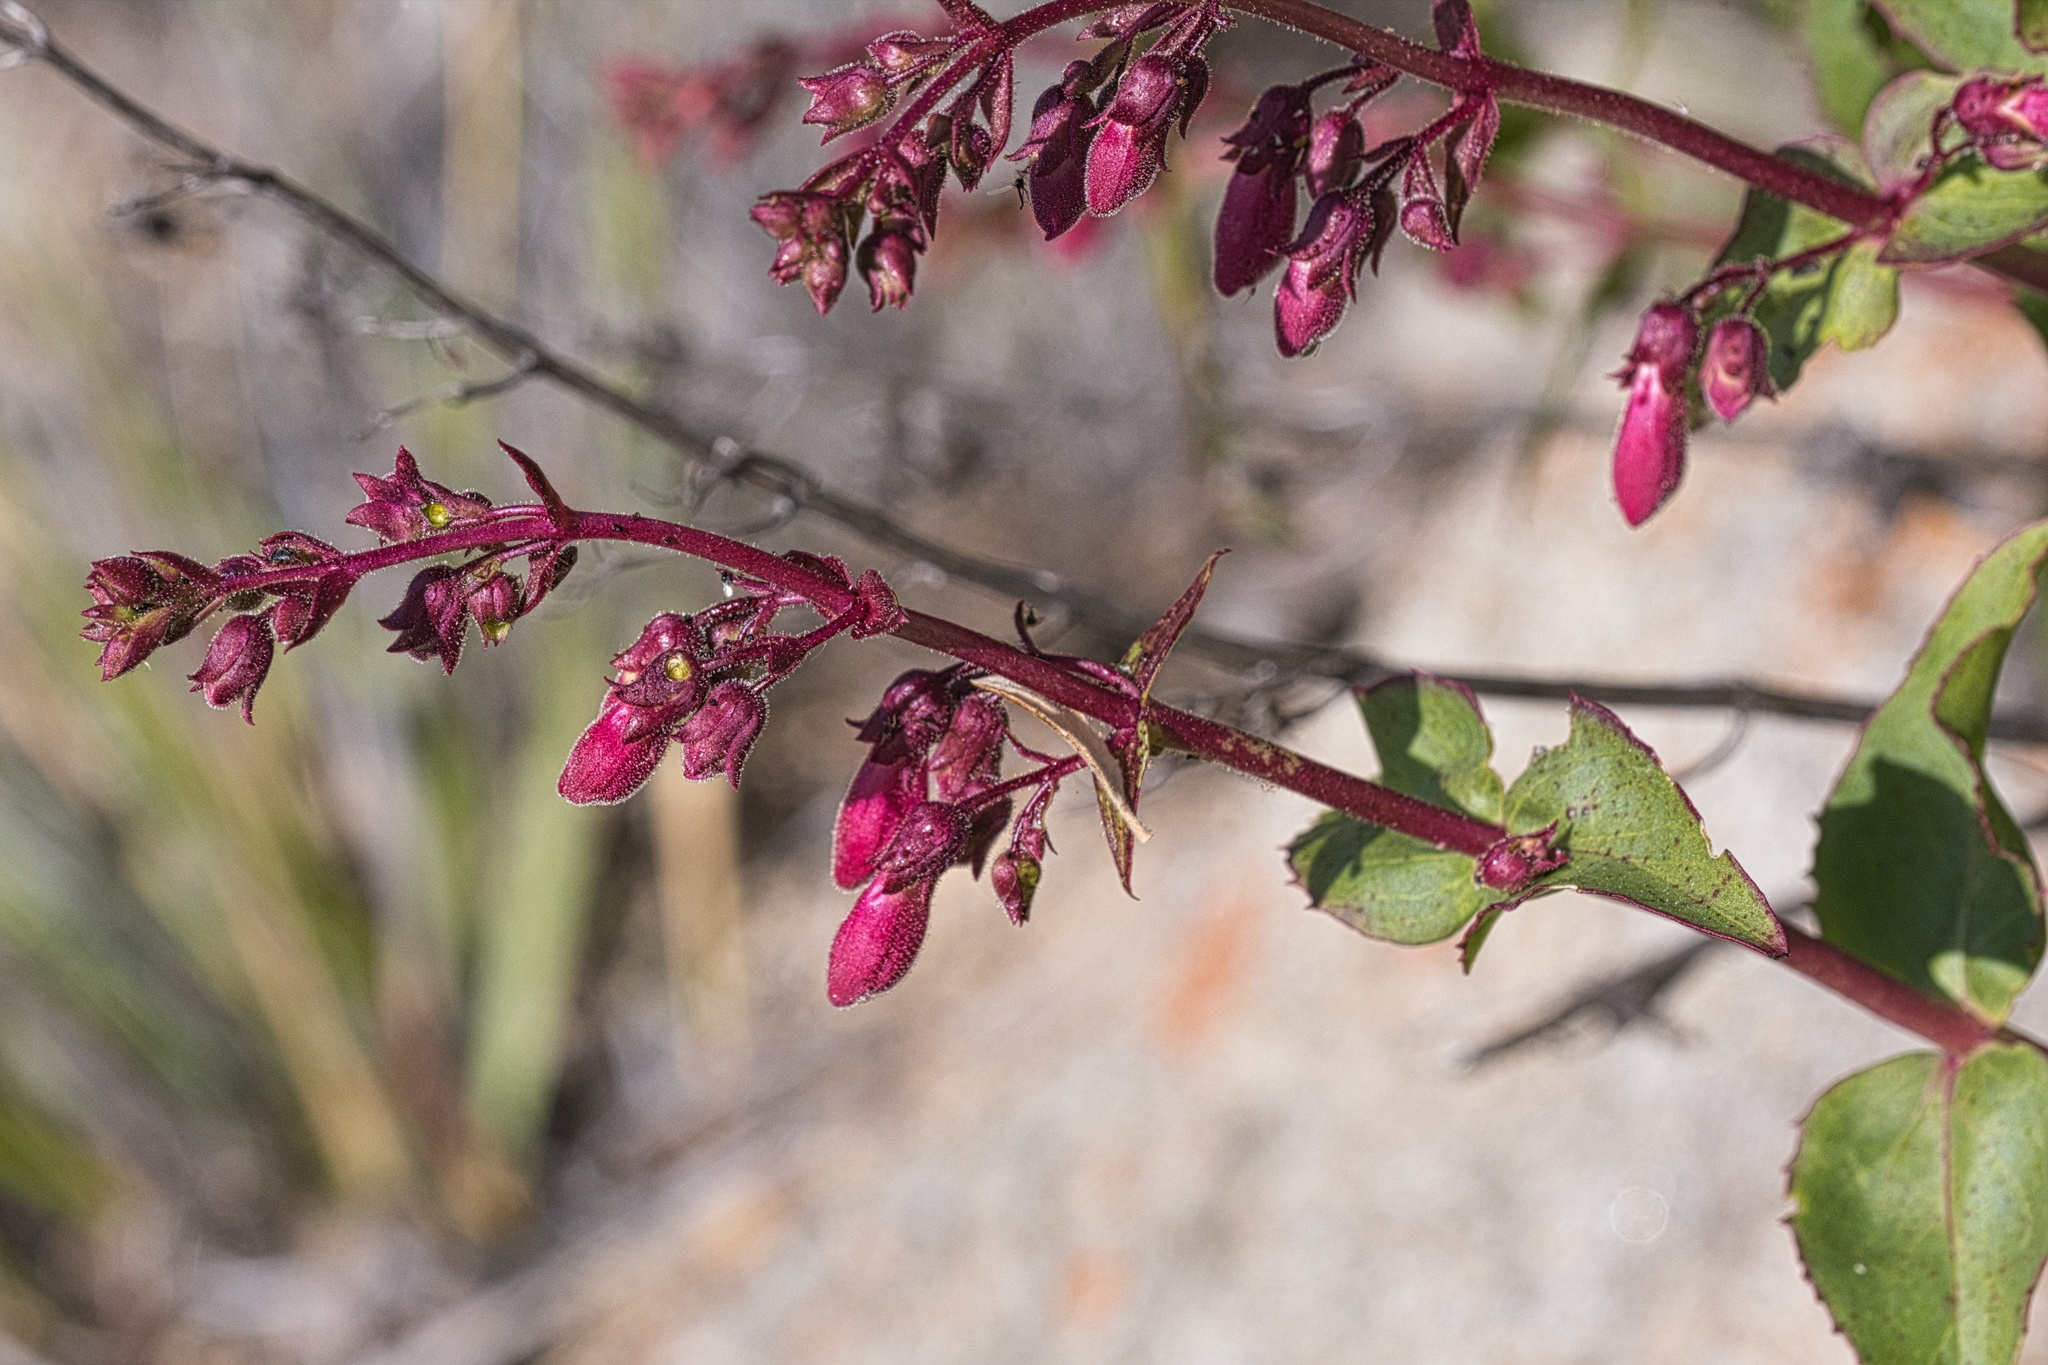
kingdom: Plantae
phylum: Tracheophyta
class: Magnoliopsida
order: Lamiales
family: Plantaginaceae
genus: Penstemon
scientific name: Penstemon clevelandii
